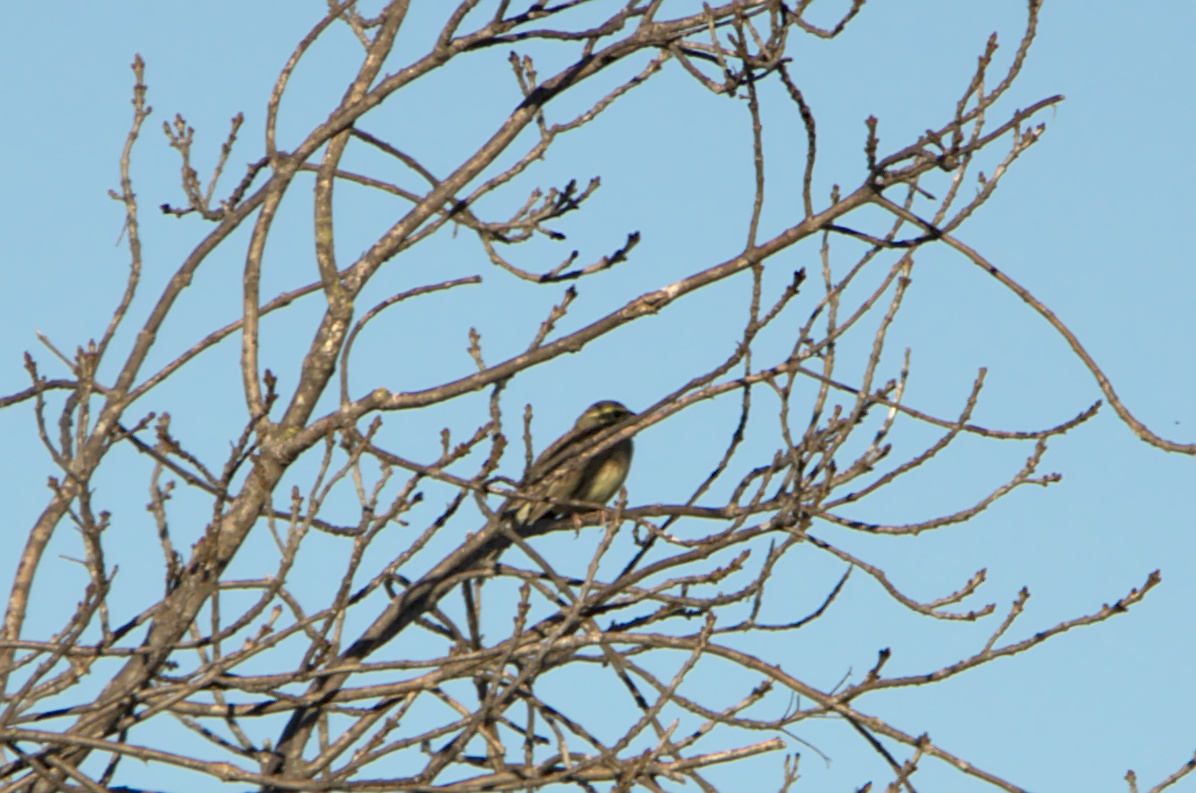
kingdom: Animalia
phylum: Chordata
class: Aves
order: Passeriformes
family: Emberizidae
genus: Emberiza
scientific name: Emberiza cirlus
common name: Cirl bunting
